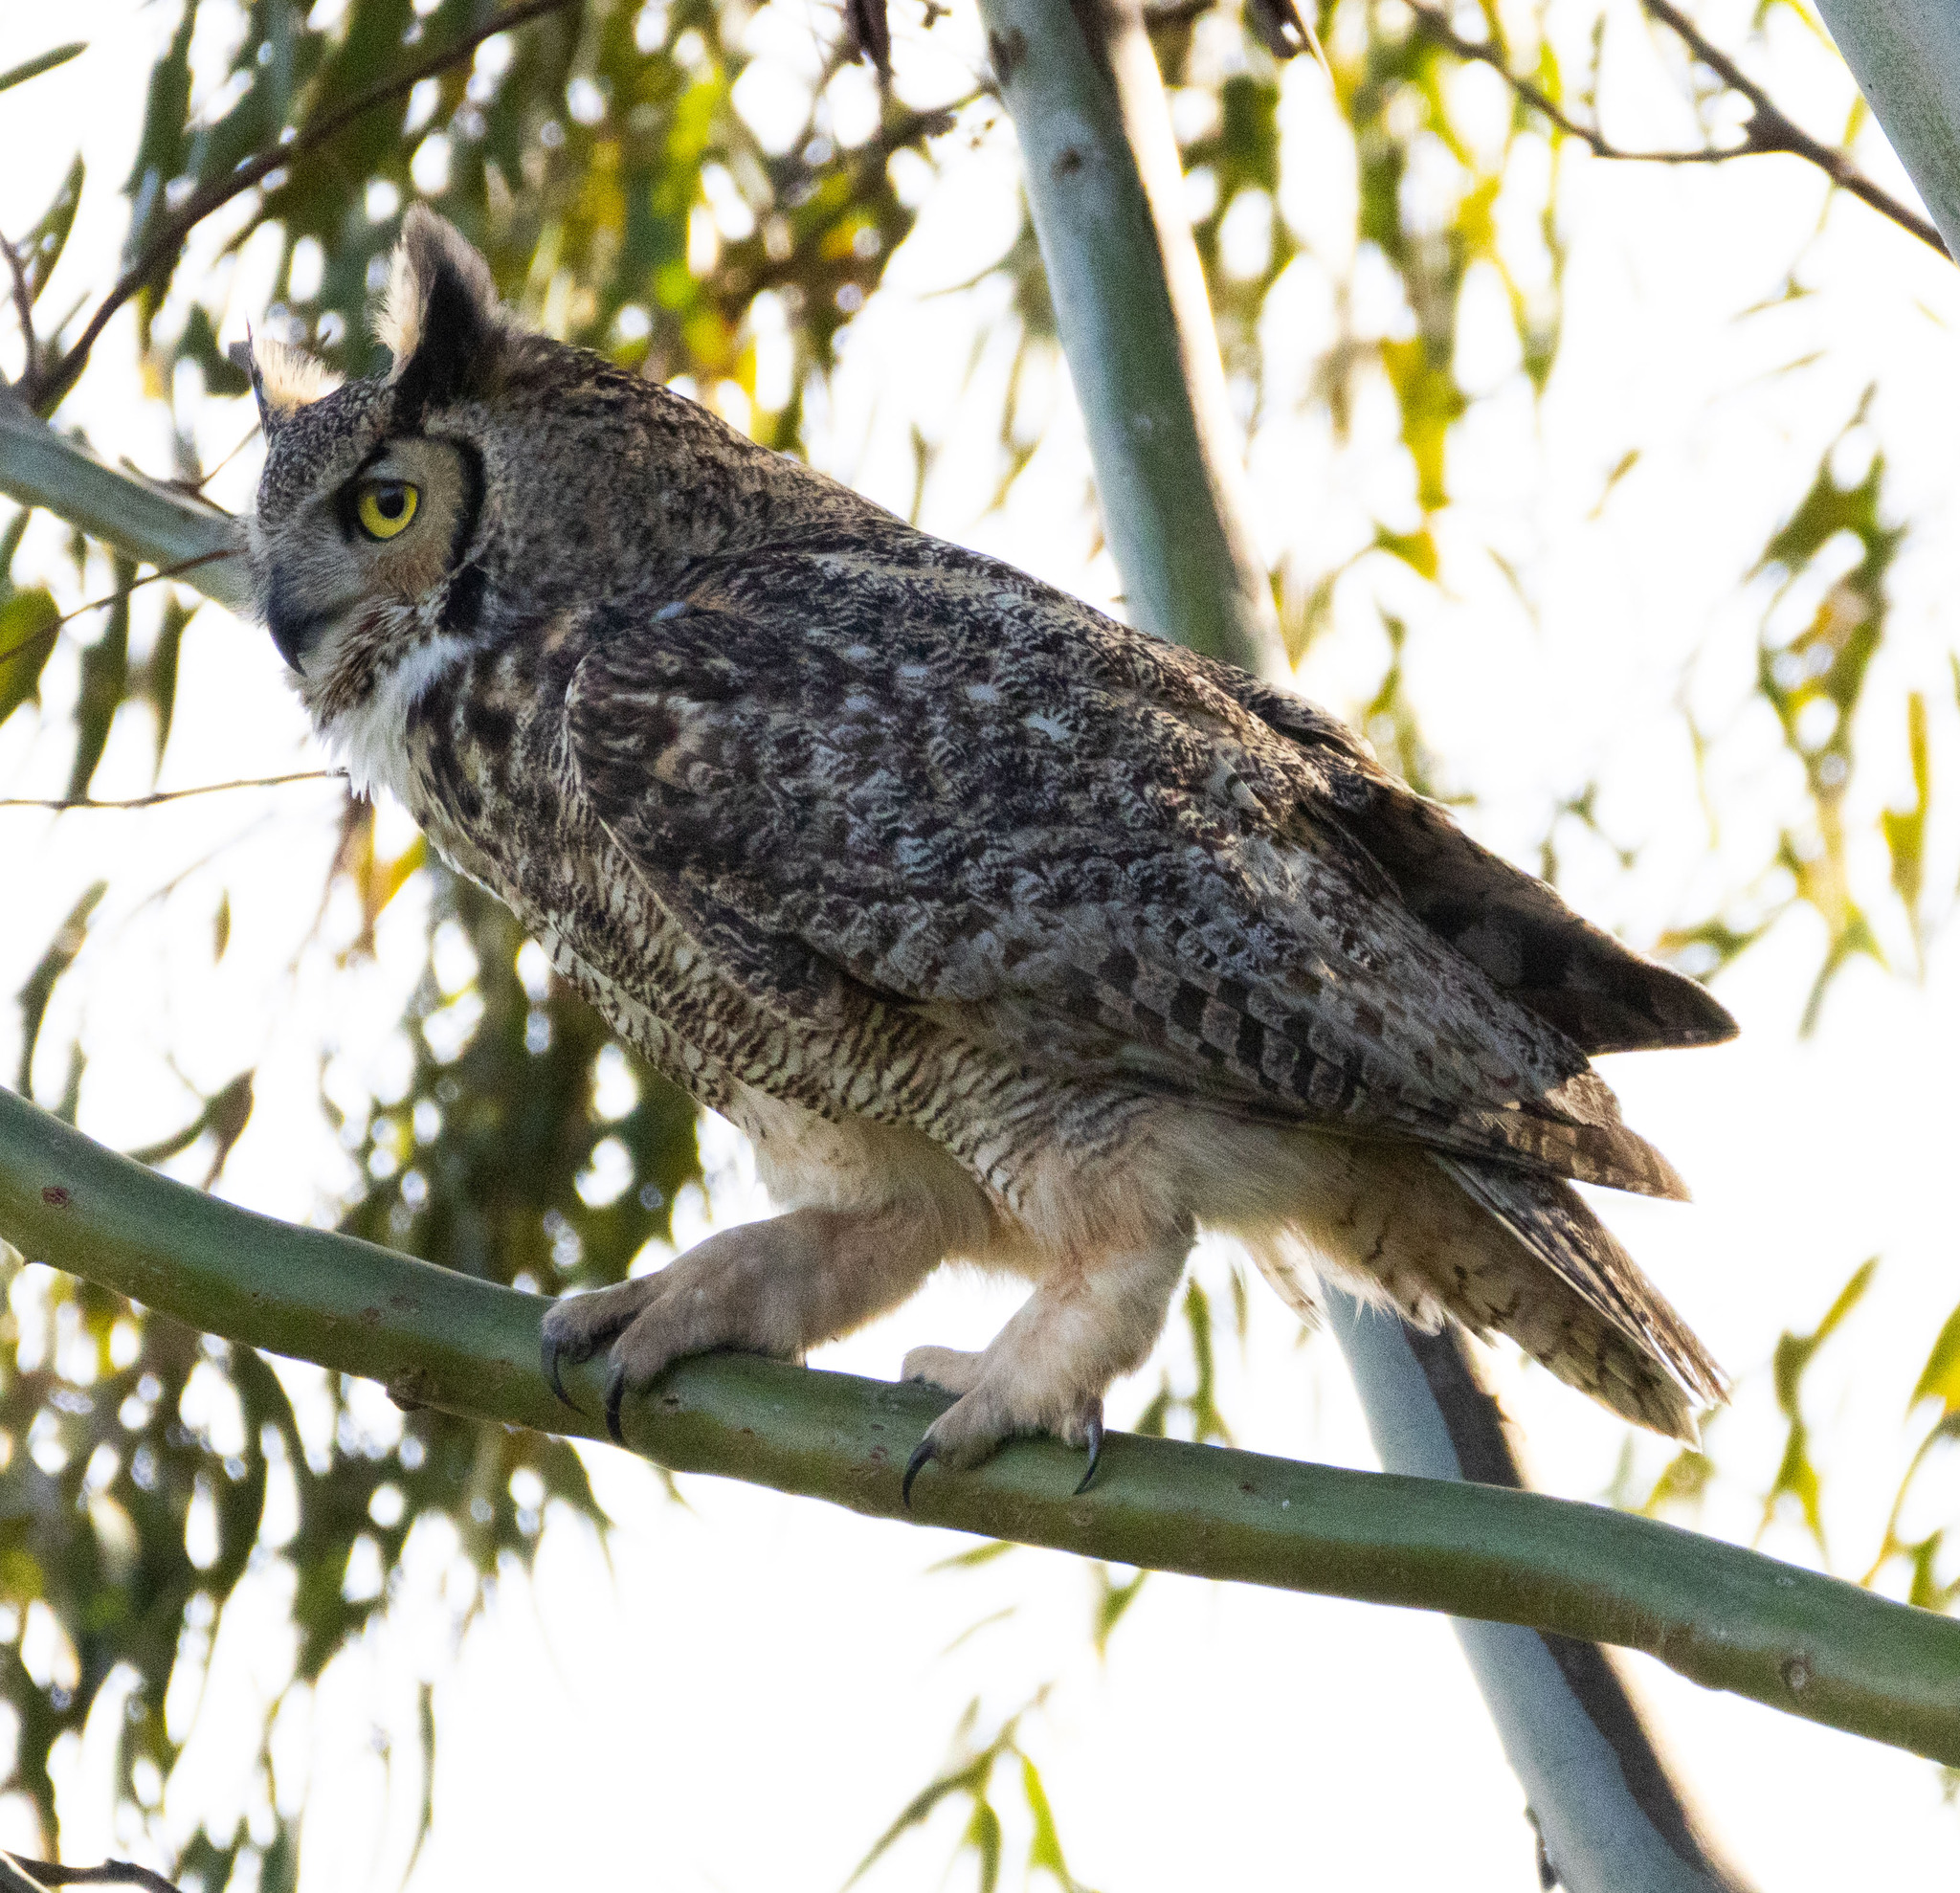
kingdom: Animalia
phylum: Chordata
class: Aves
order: Strigiformes
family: Strigidae
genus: Bubo
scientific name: Bubo virginianus
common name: Great horned owl
